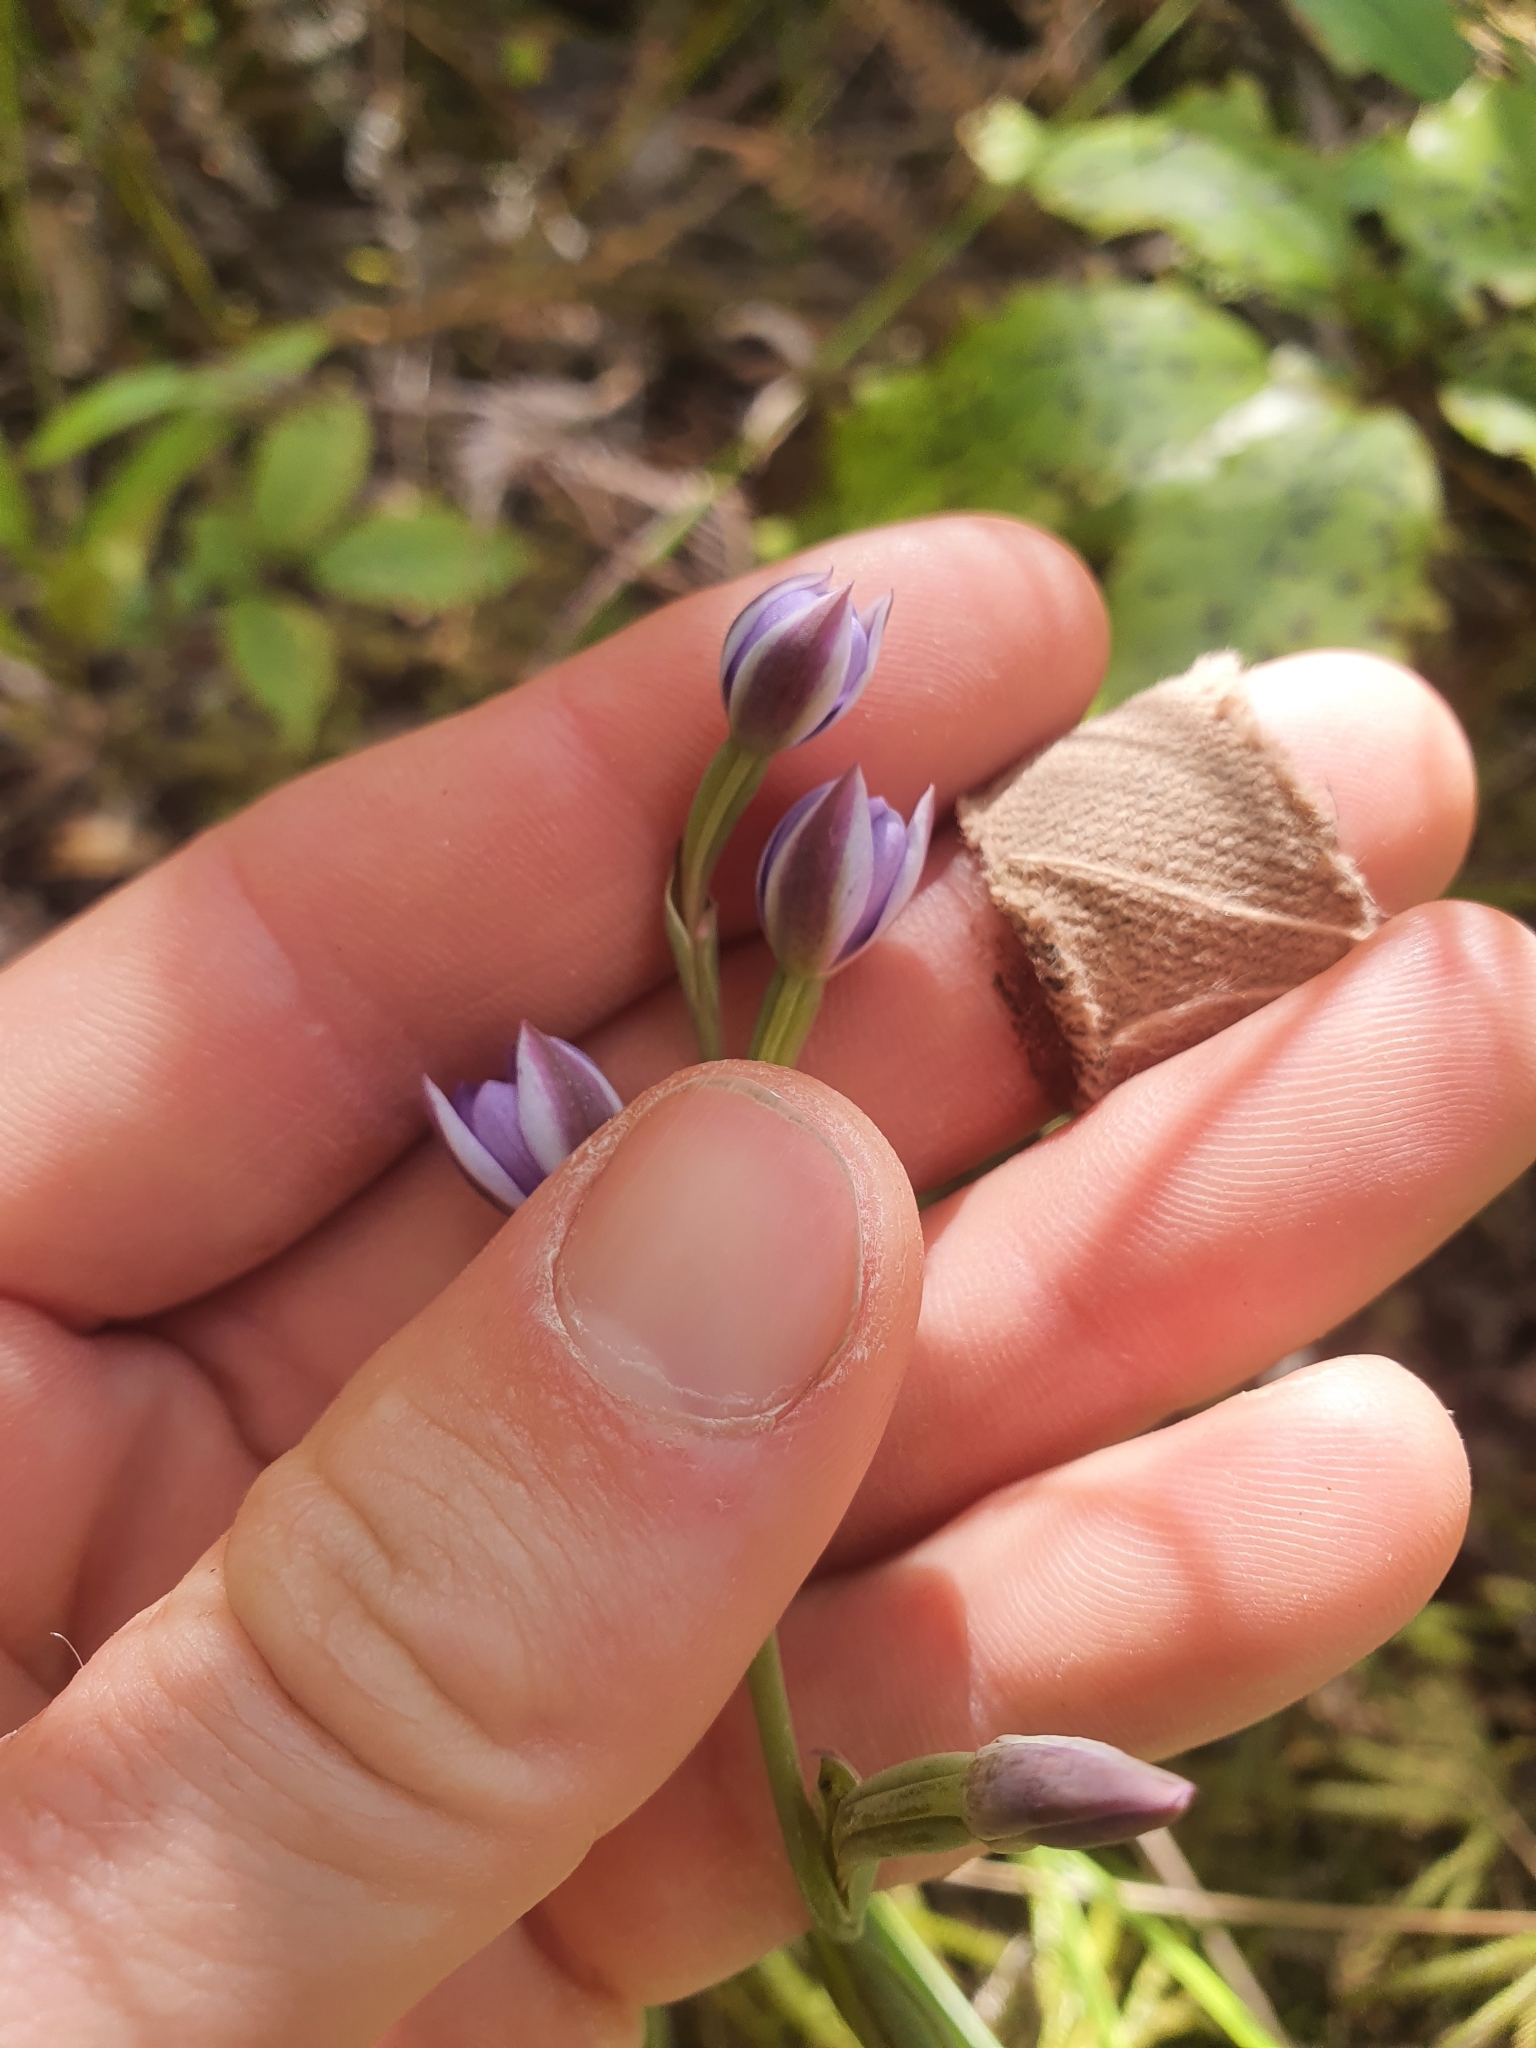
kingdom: Plantae
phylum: Tracheophyta
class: Liliopsida
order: Asparagales
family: Orchidaceae
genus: Thelymitra
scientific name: Thelymitra nervosa
